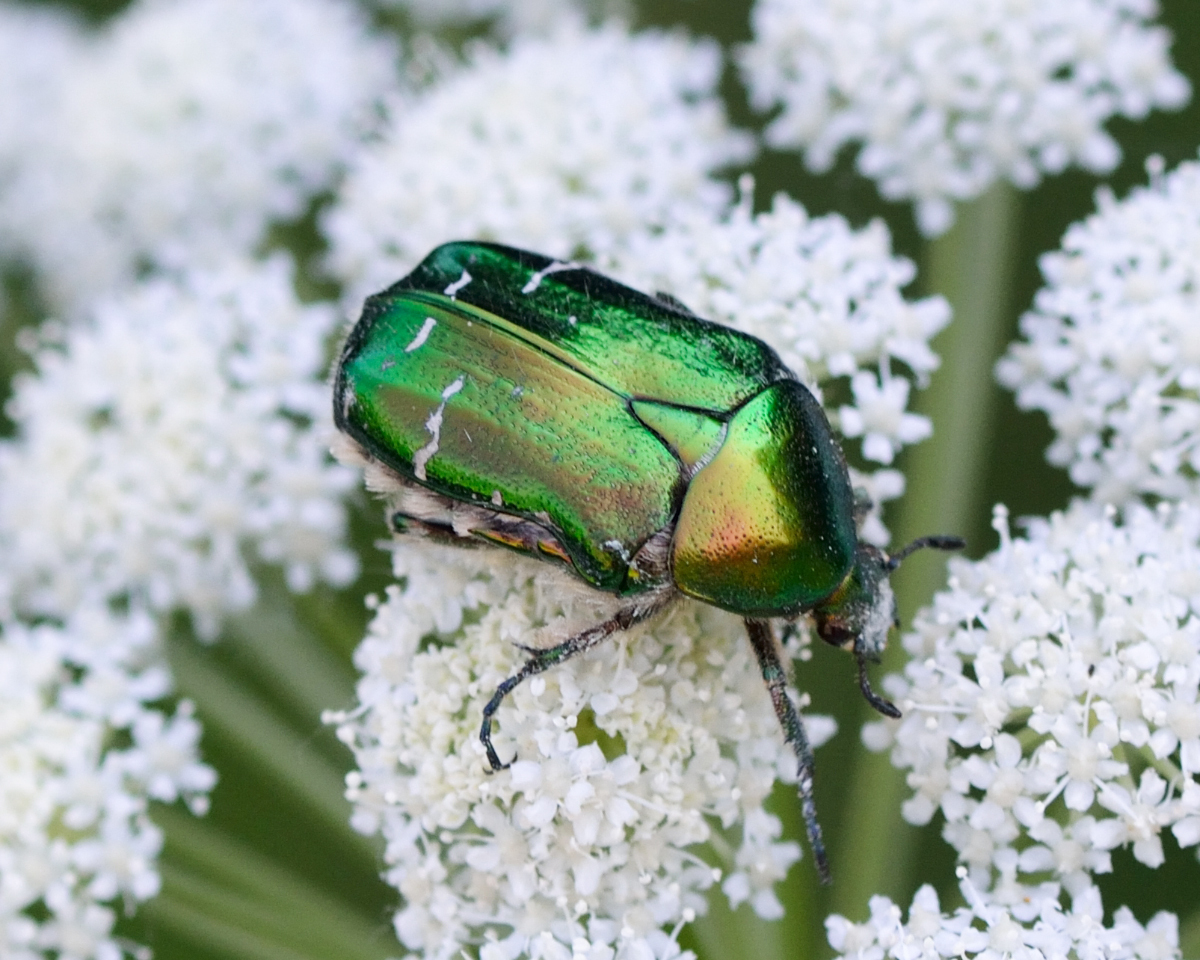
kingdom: Animalia
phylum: Arthropoda
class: Insecta
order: Coleoptera
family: Scarabaeidae
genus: Cetonia
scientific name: Cetonia aurata
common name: Rose chafer
